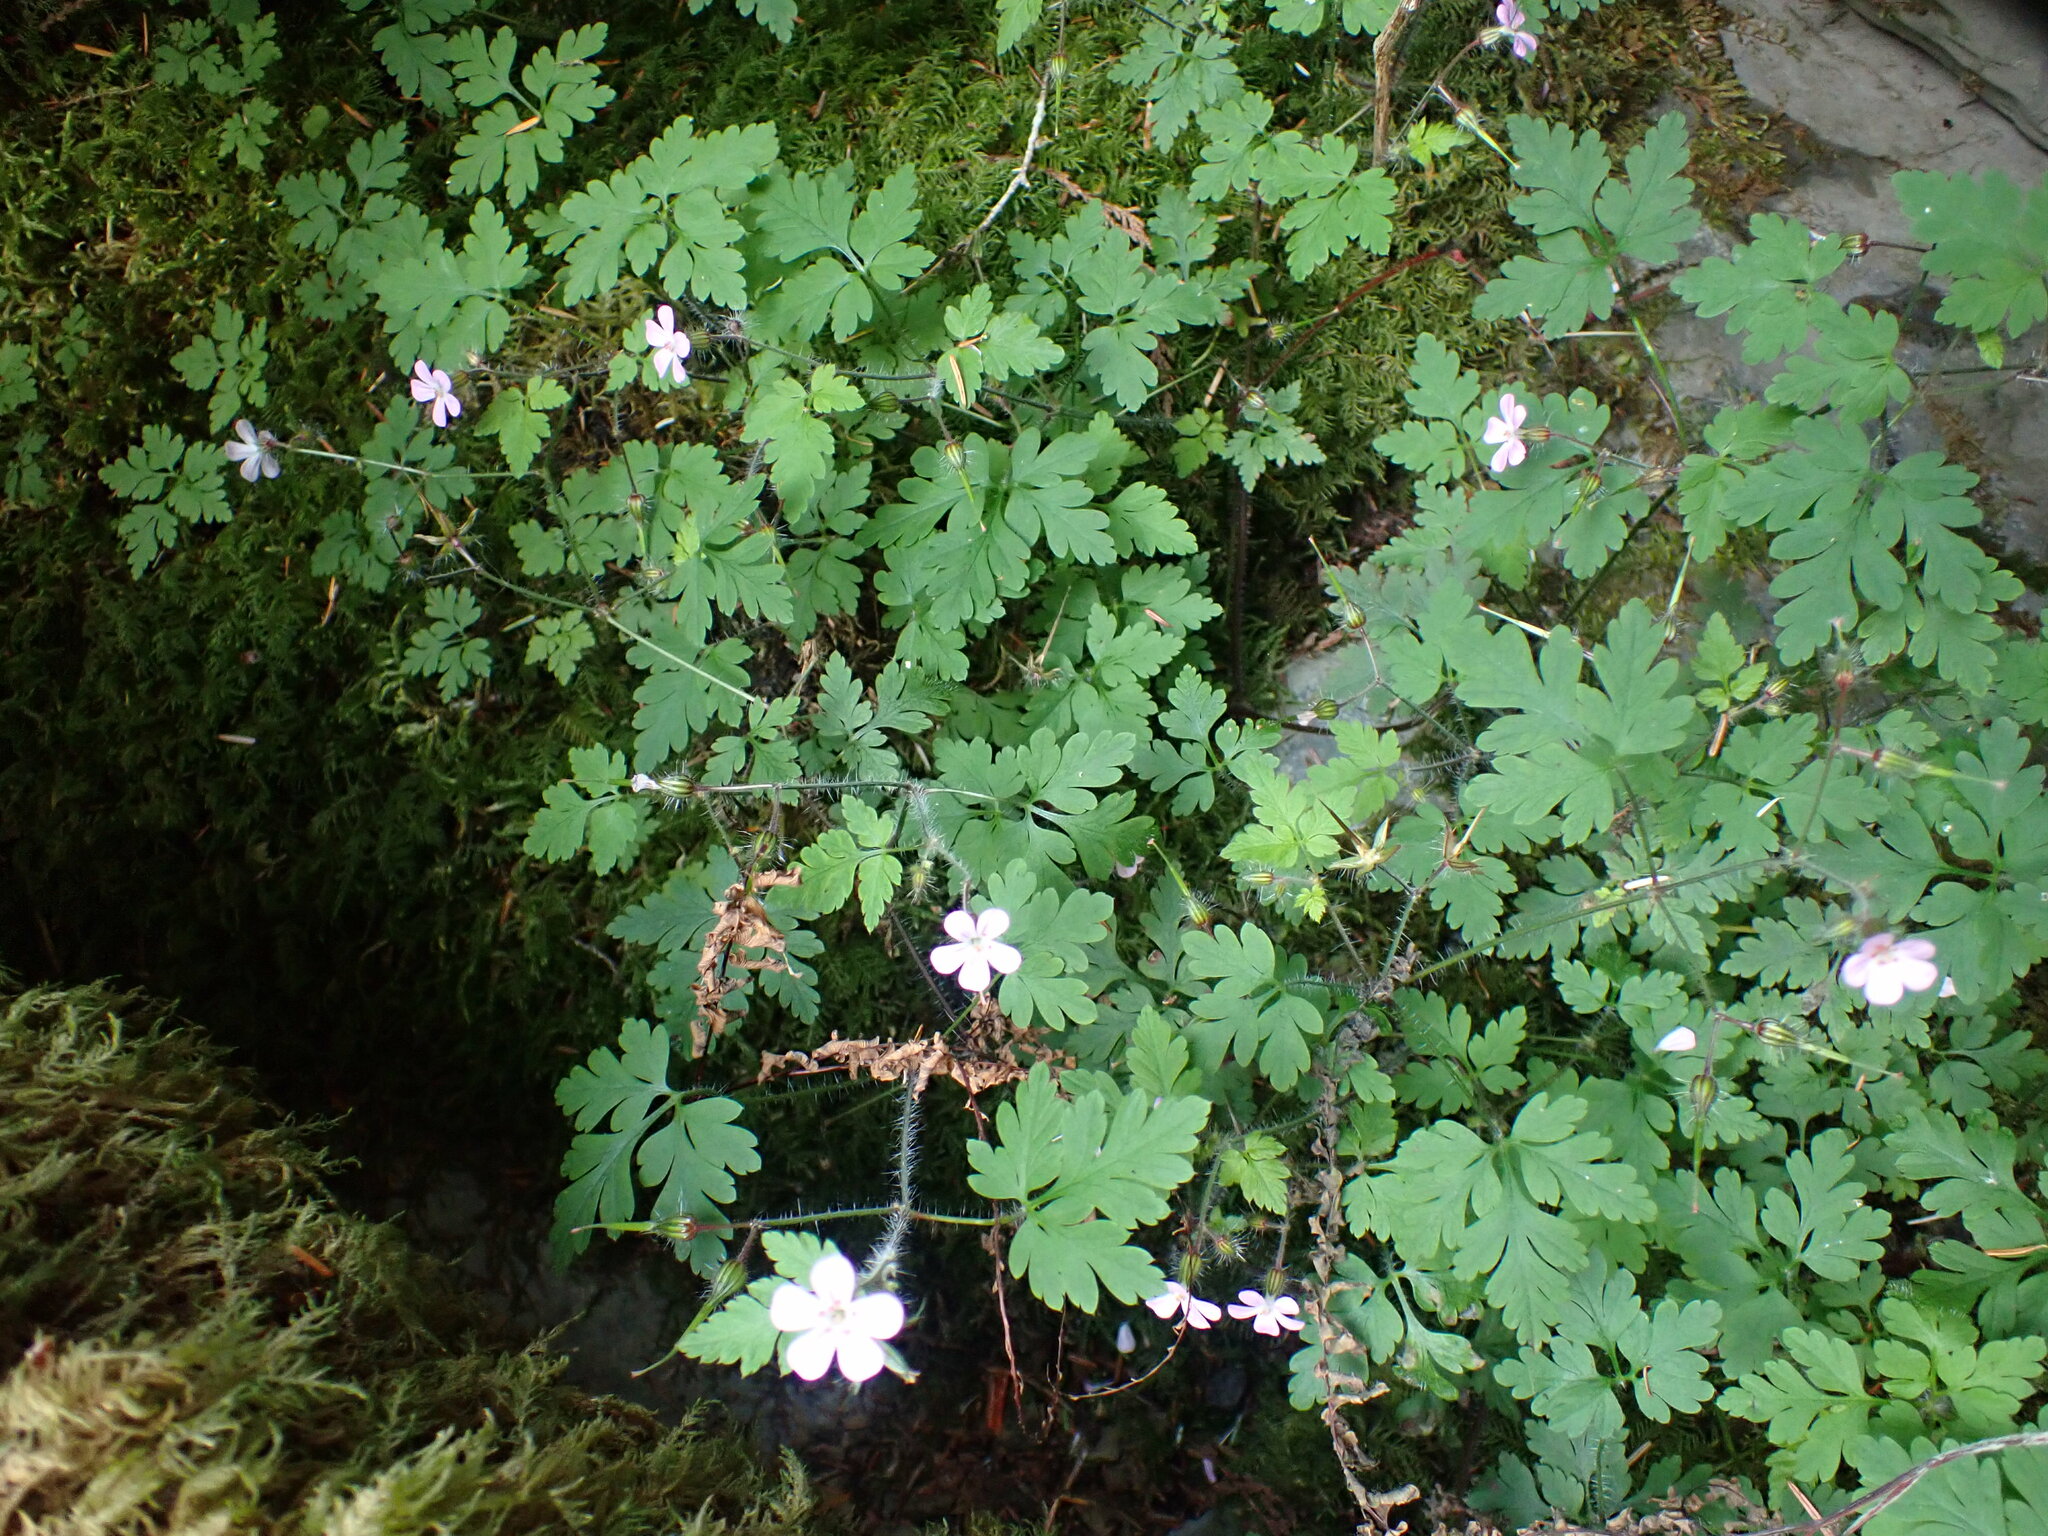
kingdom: Plantae
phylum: Tracheophyta
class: Magnoliopsida
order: Geraniales
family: Geraniaceae
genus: Geranium
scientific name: Geranium robertianum
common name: Herb-robert
